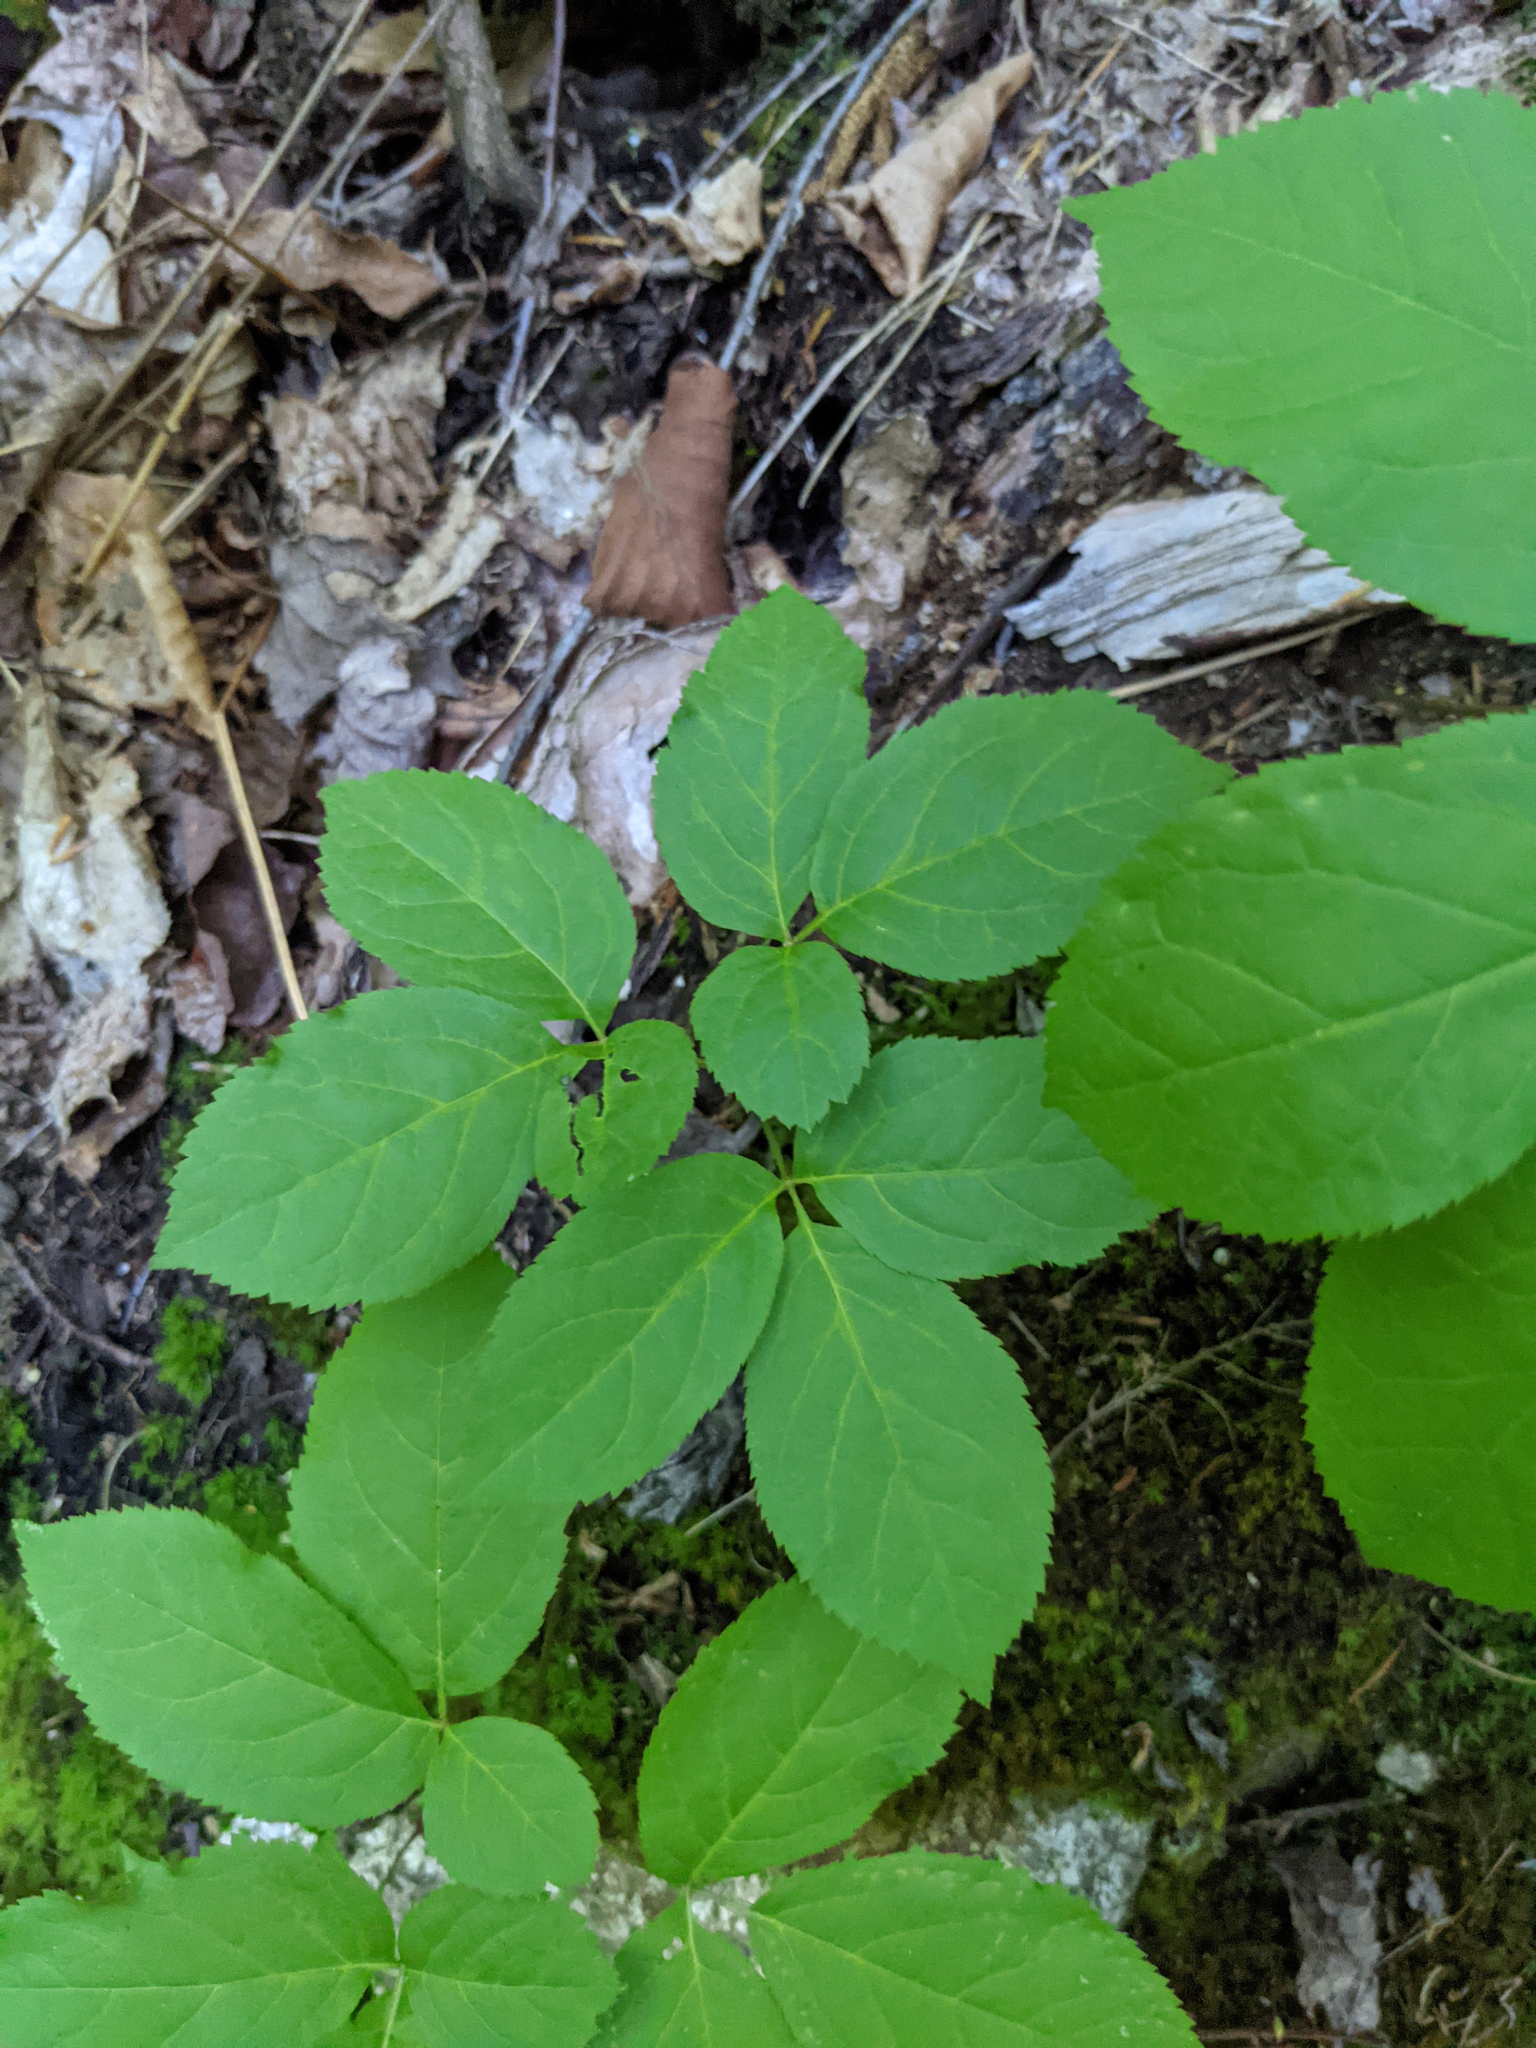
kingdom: Plantae
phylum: Tracheophyta
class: Magnoliopsida
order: Apiales
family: Araliaceae
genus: Aralia
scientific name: Aralia nudicaulis
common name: Wild sarsaparilla
